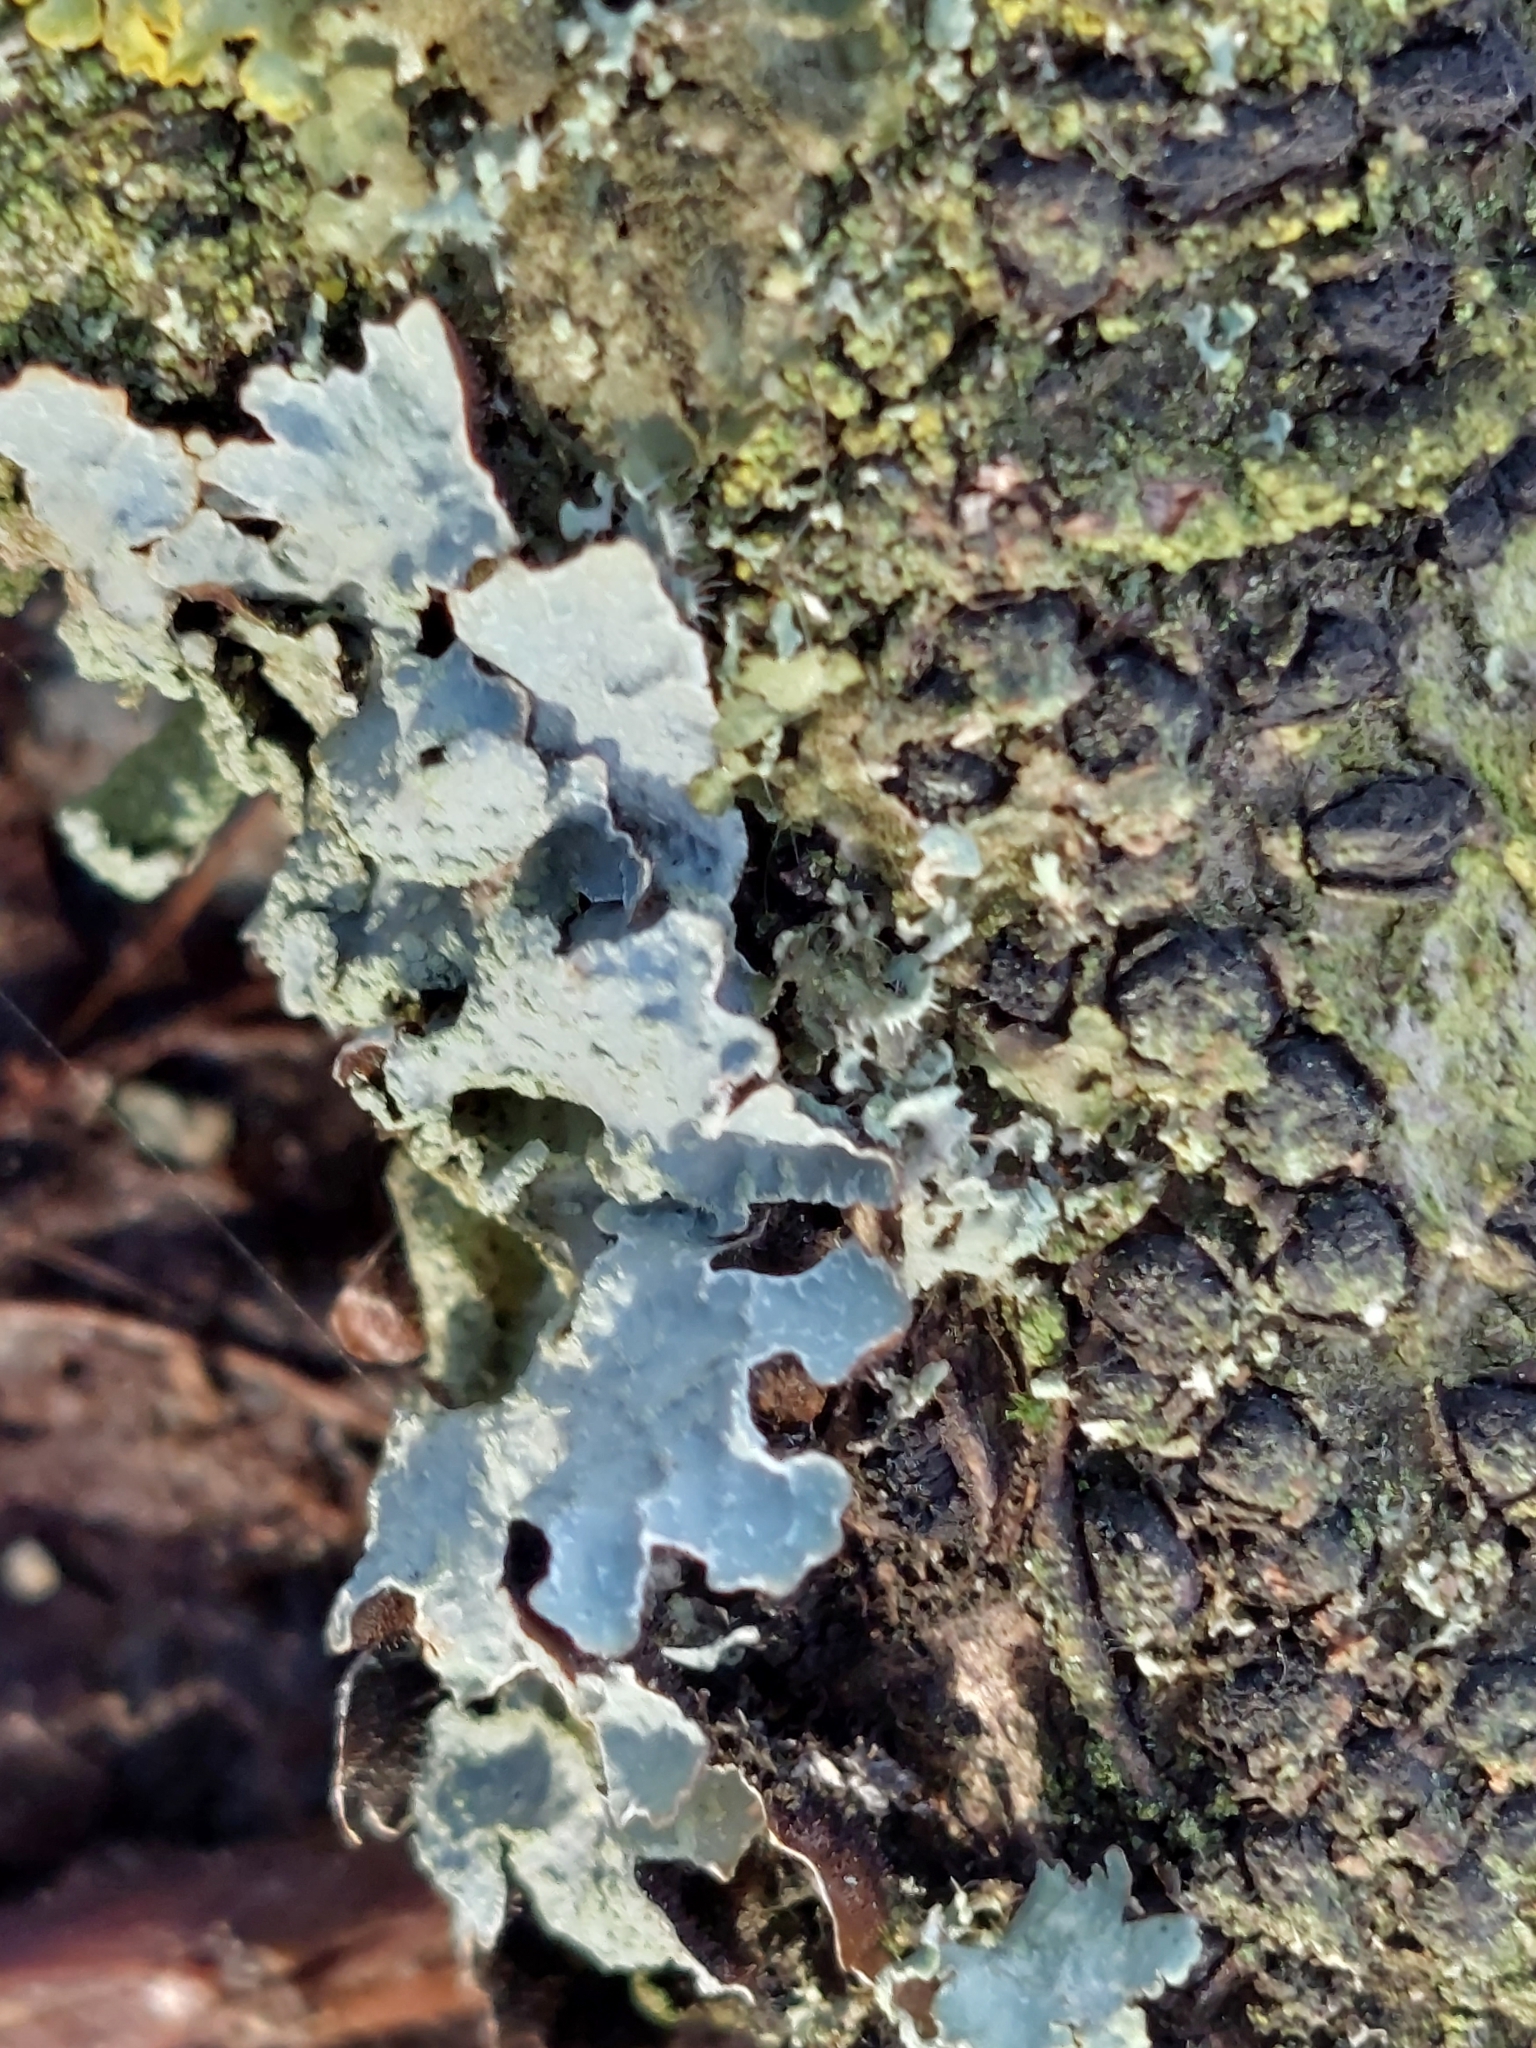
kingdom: Fungi
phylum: Ascomycota
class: Lecanoromycetes
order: Lecanorales
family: Parmeliaceae
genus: Parmelia
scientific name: Parmelia sulcata
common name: Netted shield lichen
